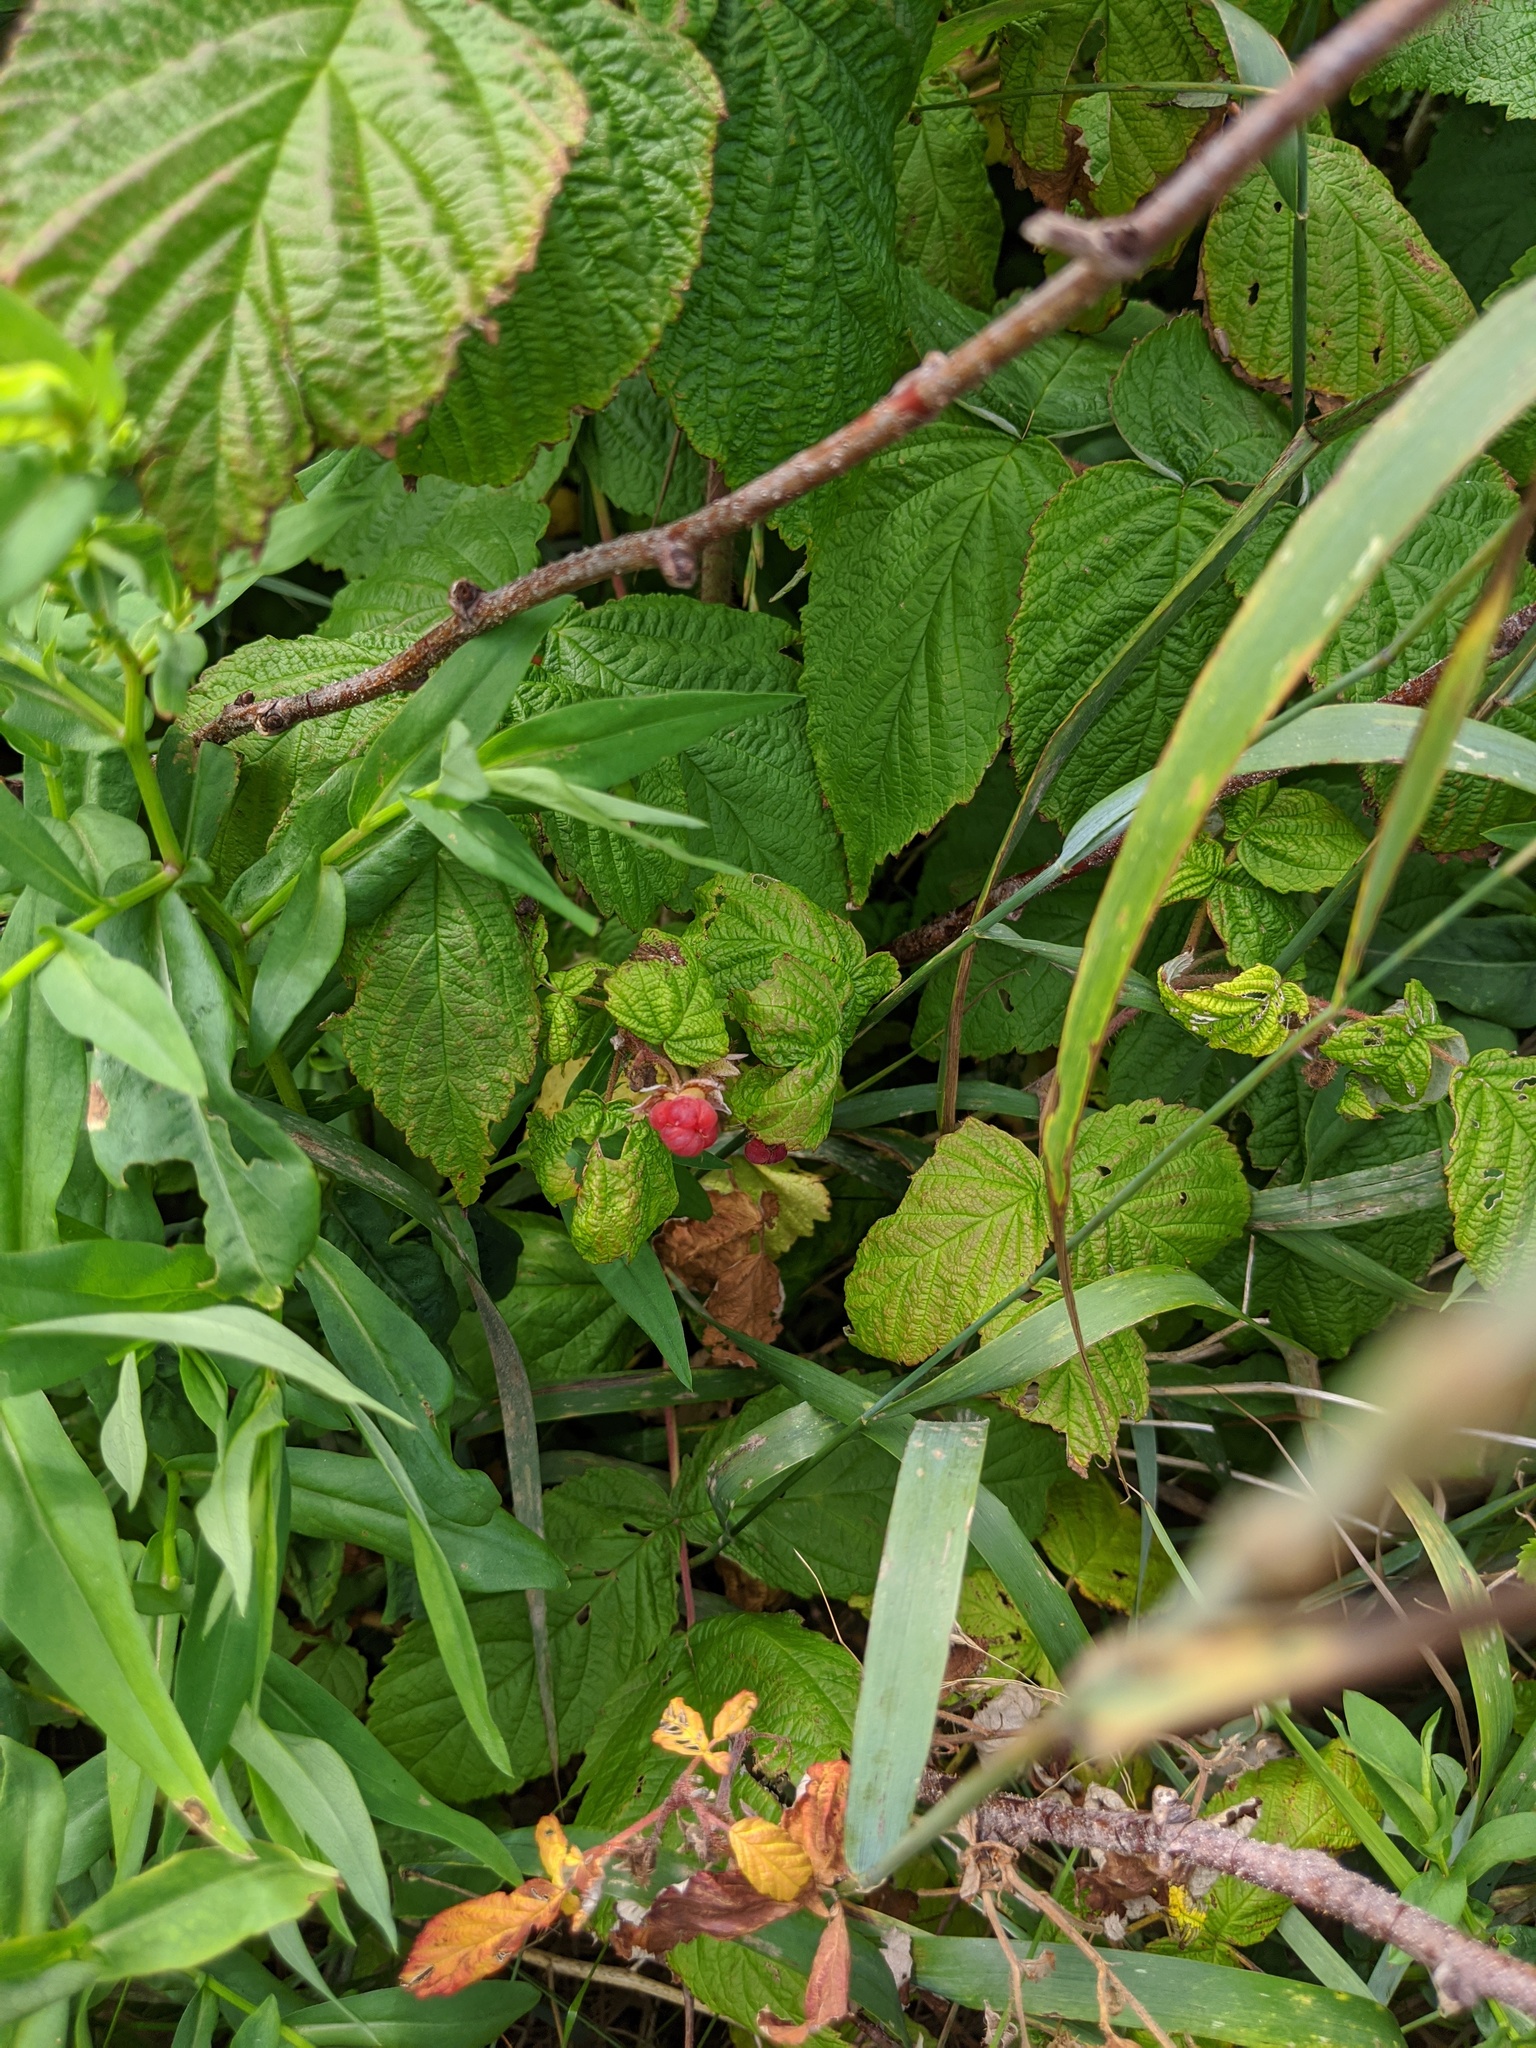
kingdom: Plantae
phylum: Tracheophyta
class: Magnoliopsida
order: Rosales
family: Rosaceae
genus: Rubus
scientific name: Rubus idaeus
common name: Raspberry
